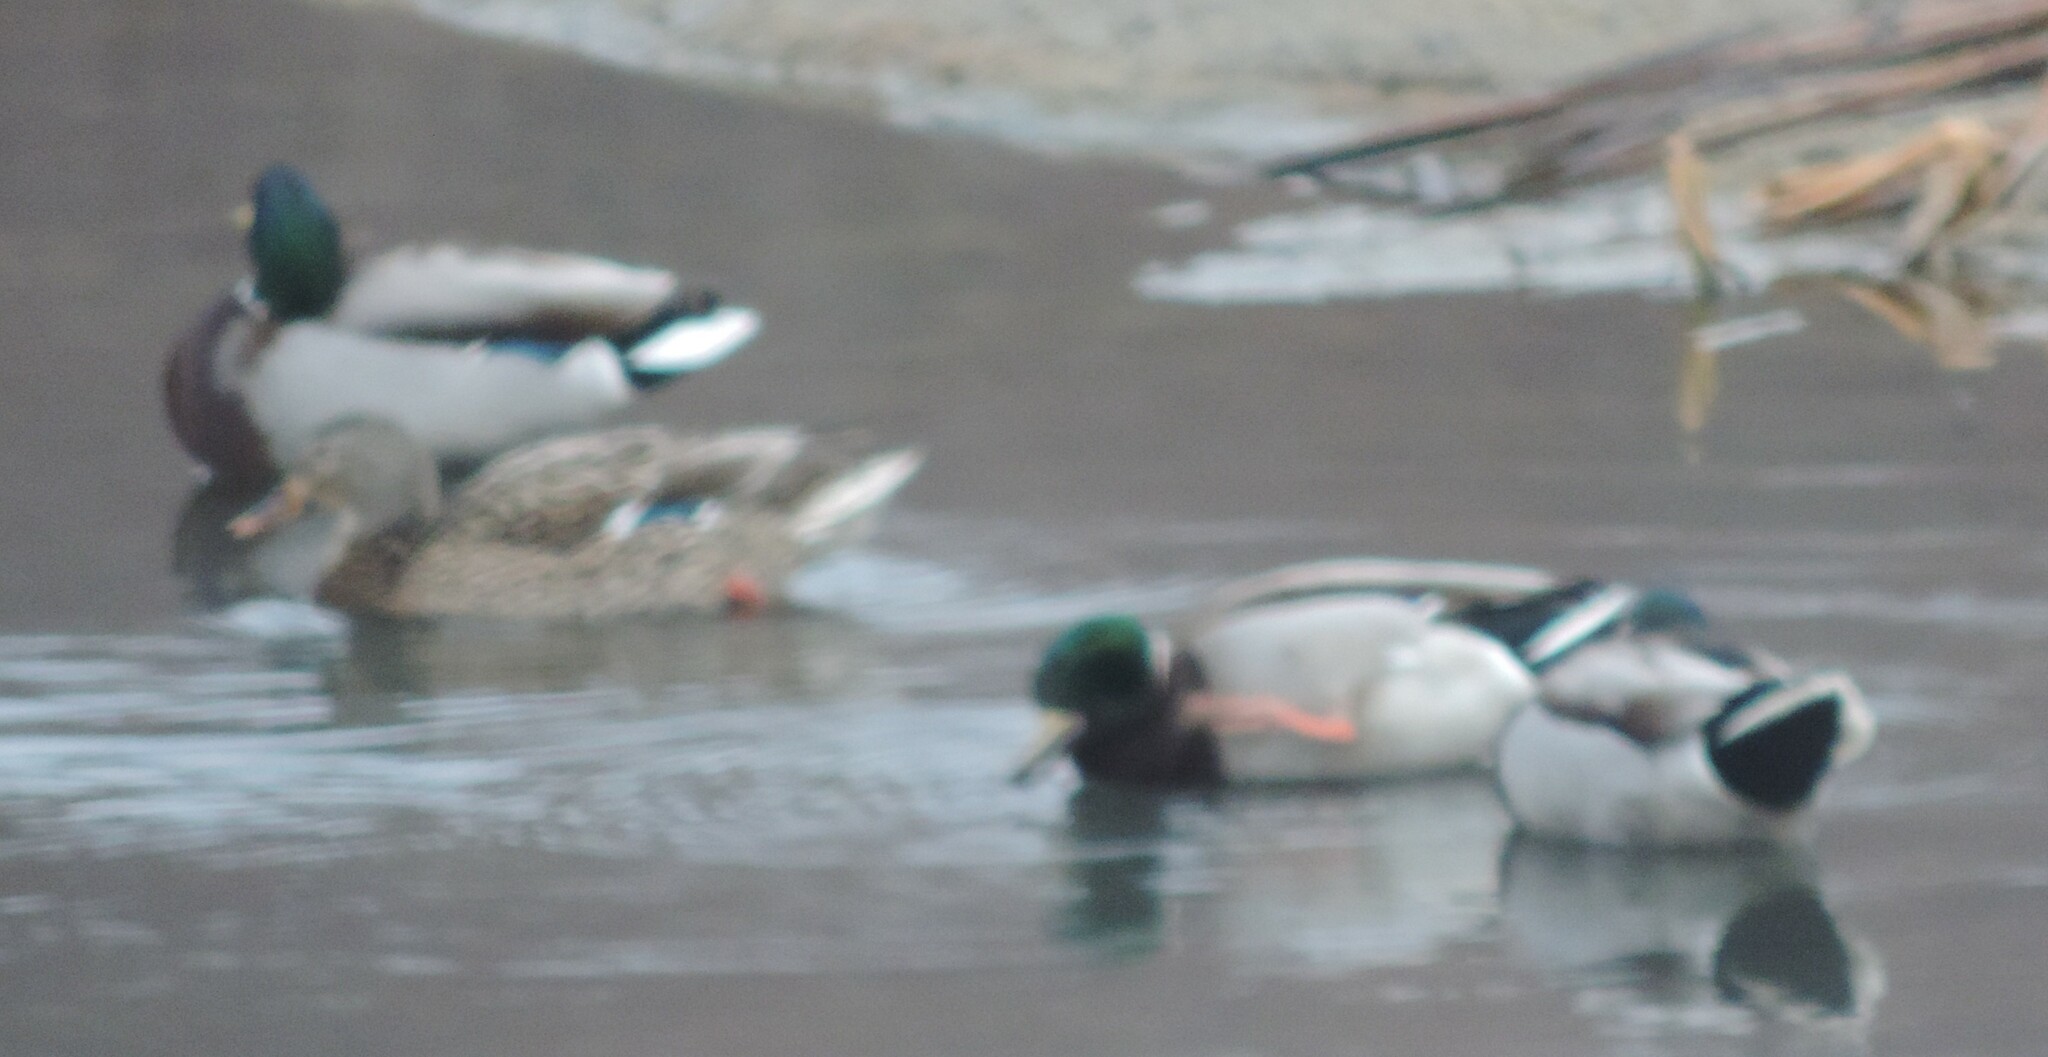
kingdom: Animalia
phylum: Chordata
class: Aves
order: Anseriformes
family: Anatidae
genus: Anas
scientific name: Anas platyrhynchos
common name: Mallard
